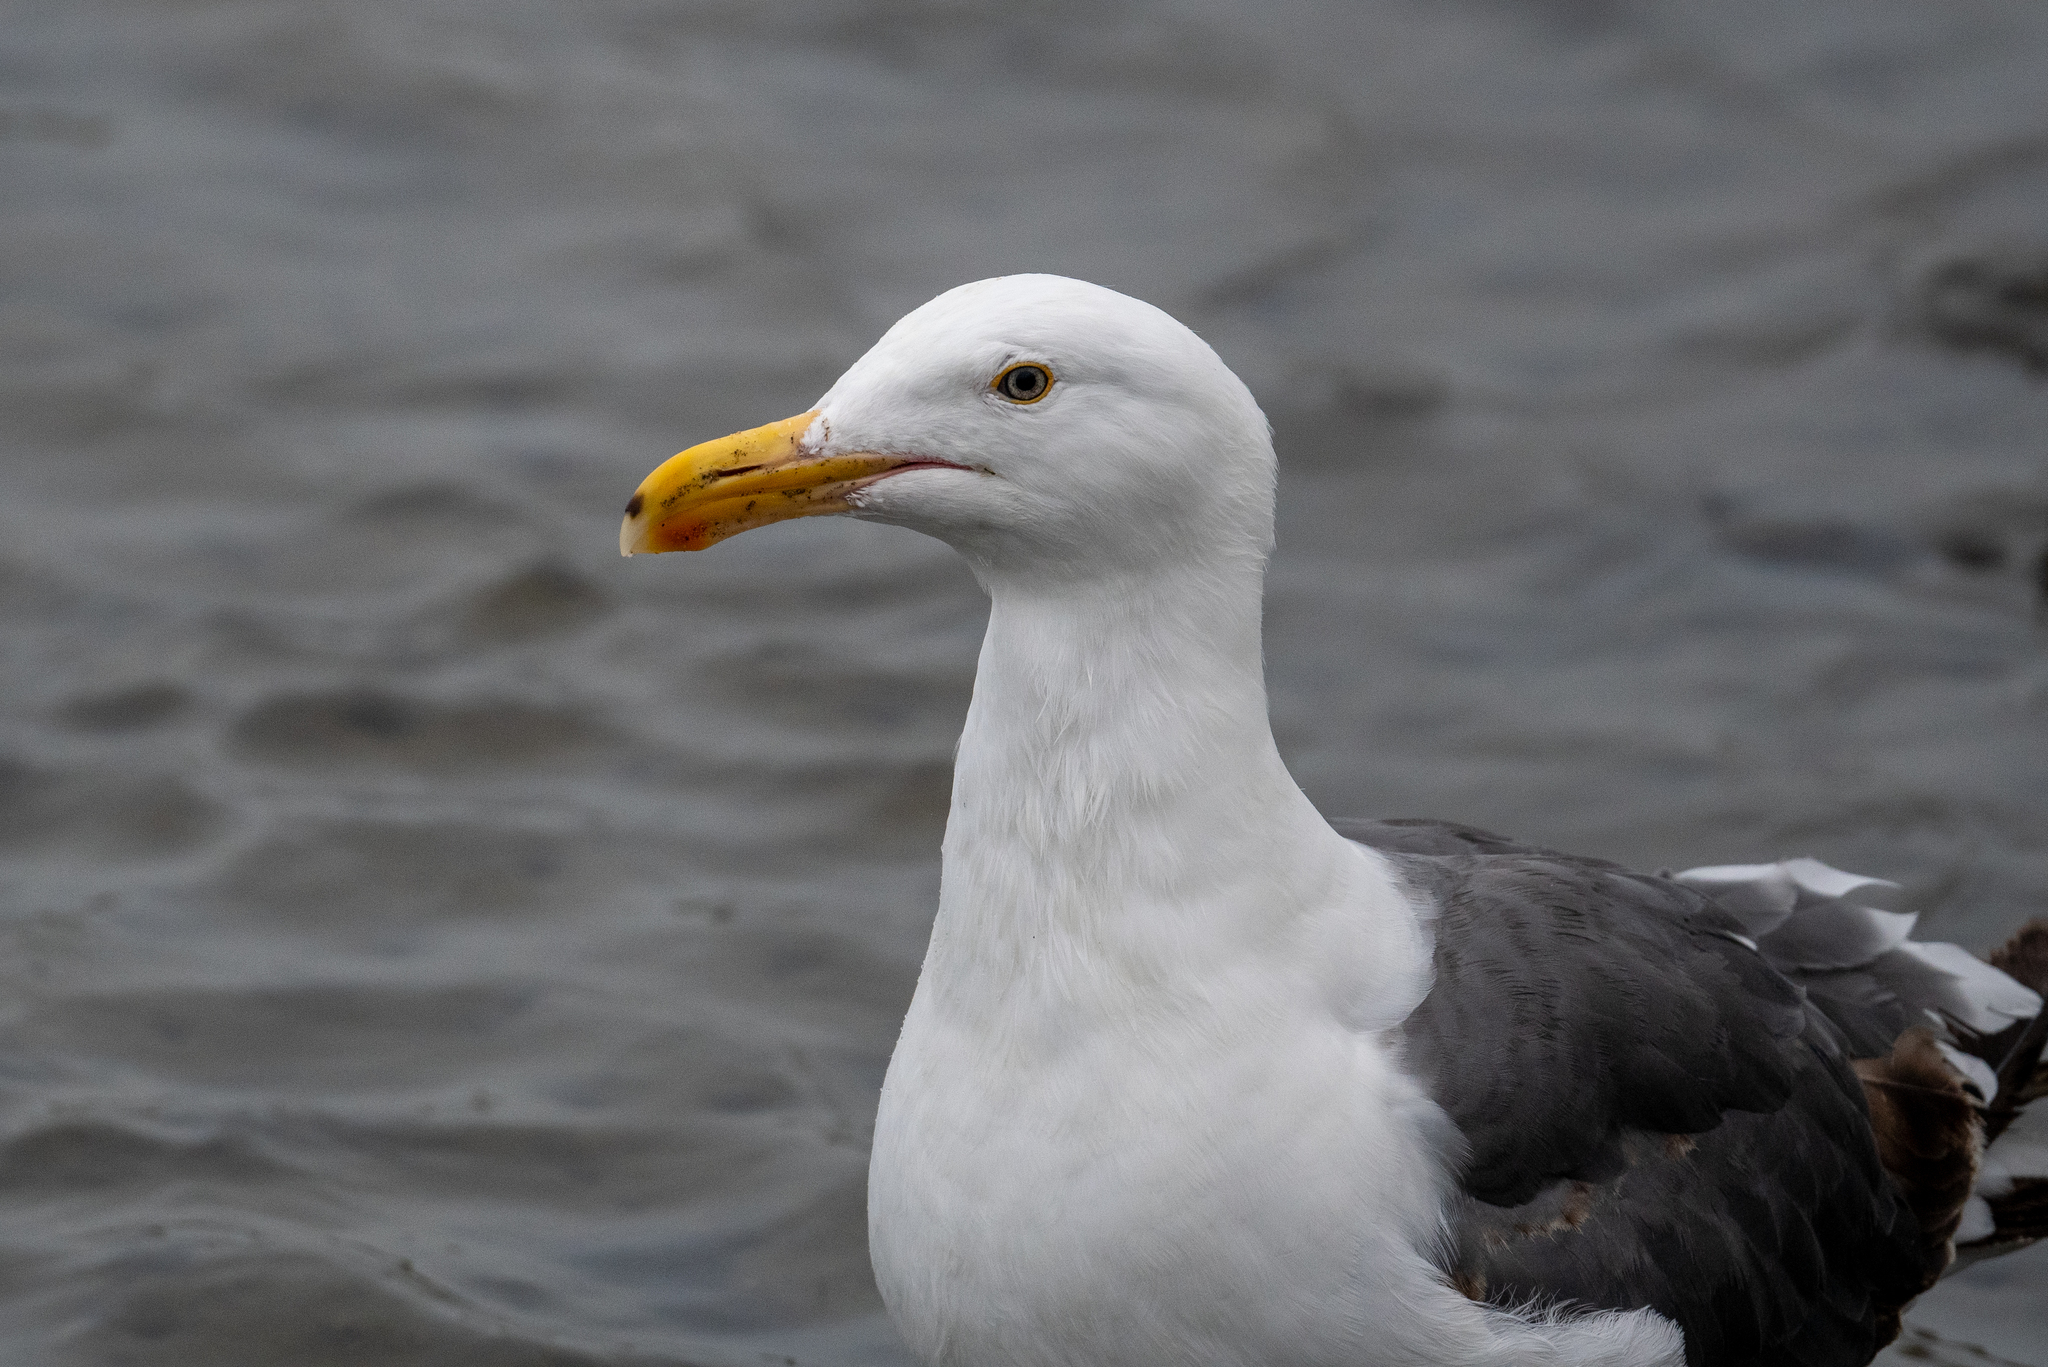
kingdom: Animalia
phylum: Chordata
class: Aves
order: Charadriiformes
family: Laridae
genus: Larus
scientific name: Larus occidentalis
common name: Western gull
